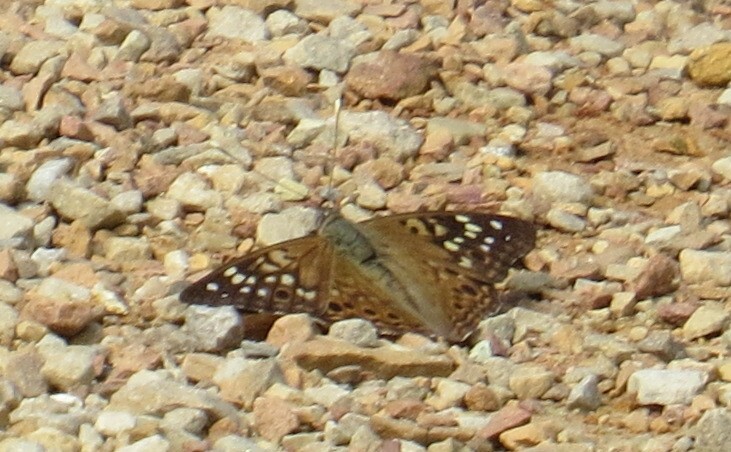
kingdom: Animalia
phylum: Arthropoda
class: Insecta
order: Lepidoptera
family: Nymphalidae
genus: Asterocampa
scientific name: Asterocampa celtis
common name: Hackberry emperor
